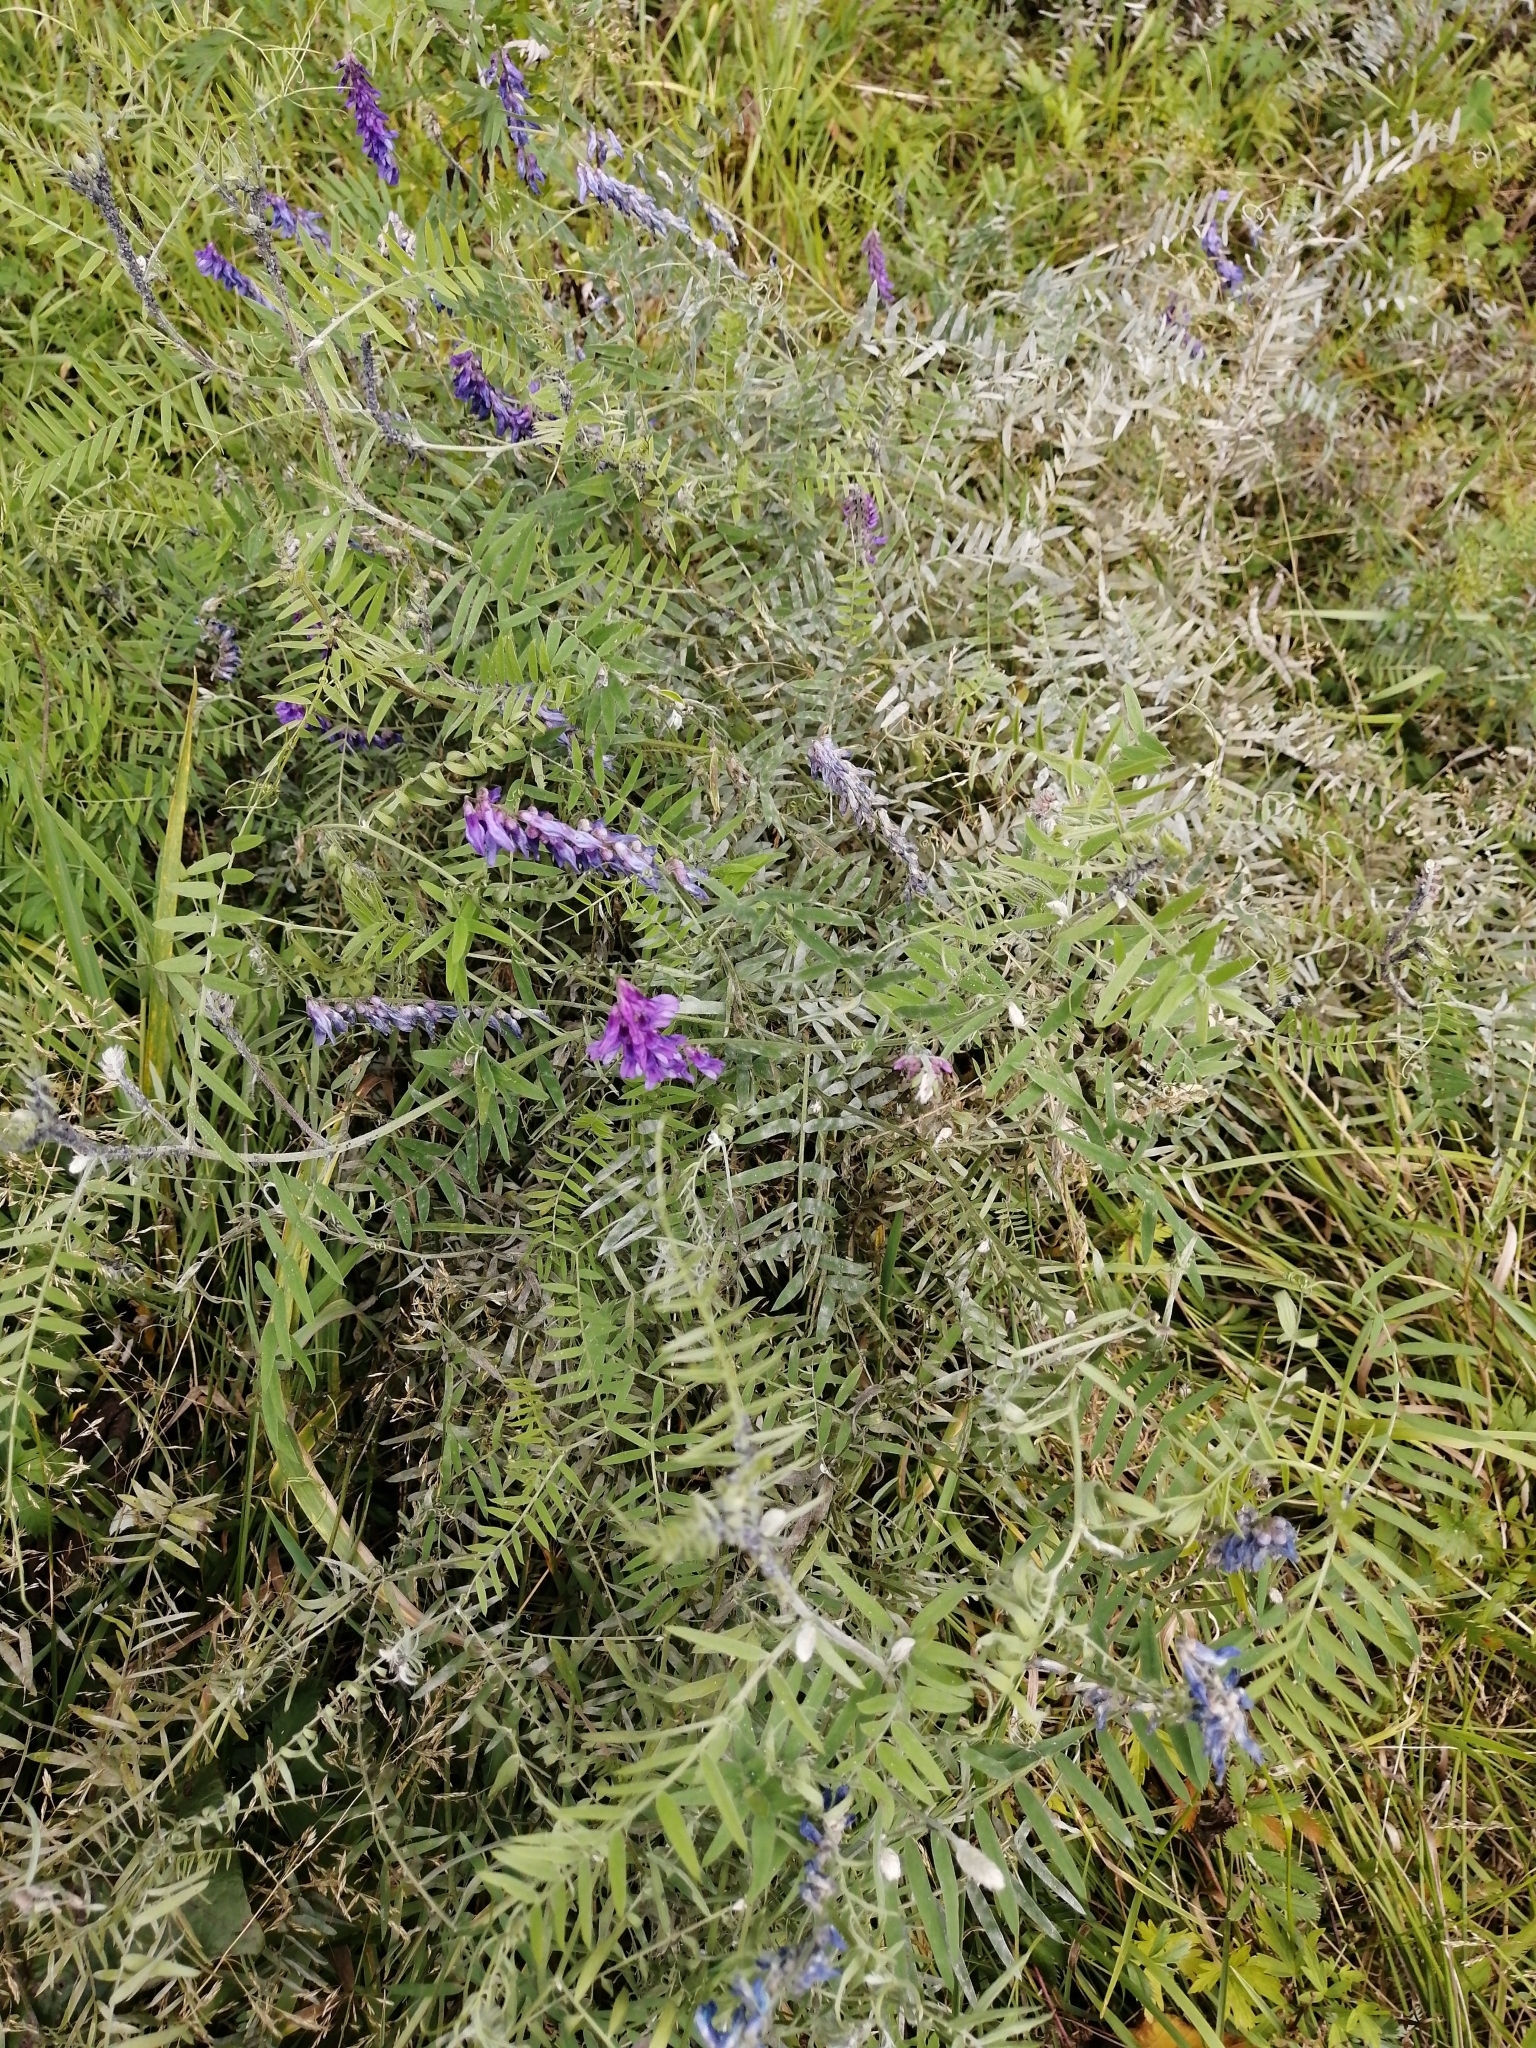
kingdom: Plantae
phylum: Tracheophyta
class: Magnoliopsida
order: Fabales
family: Fabaceae
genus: Vicia
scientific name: Vicia cracca
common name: Bird vetch
